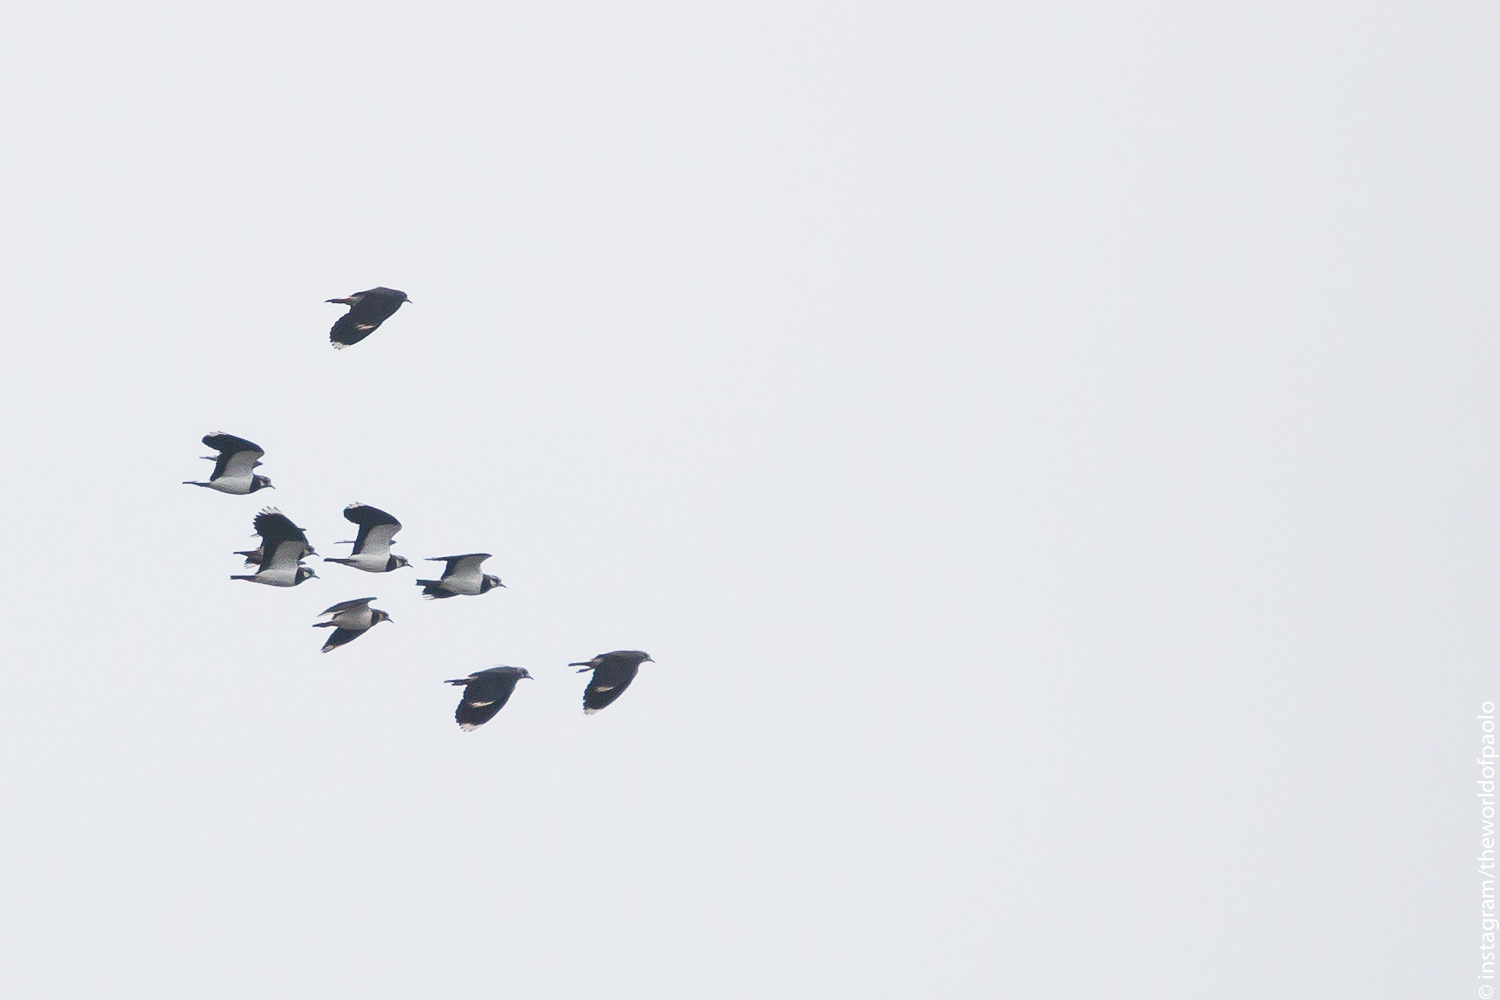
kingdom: Animalia
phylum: Chordata
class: Aves
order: Charadriiformes
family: Charadriidae
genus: Vanellus
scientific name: Vanellus vanellus
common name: Northern lapwing
